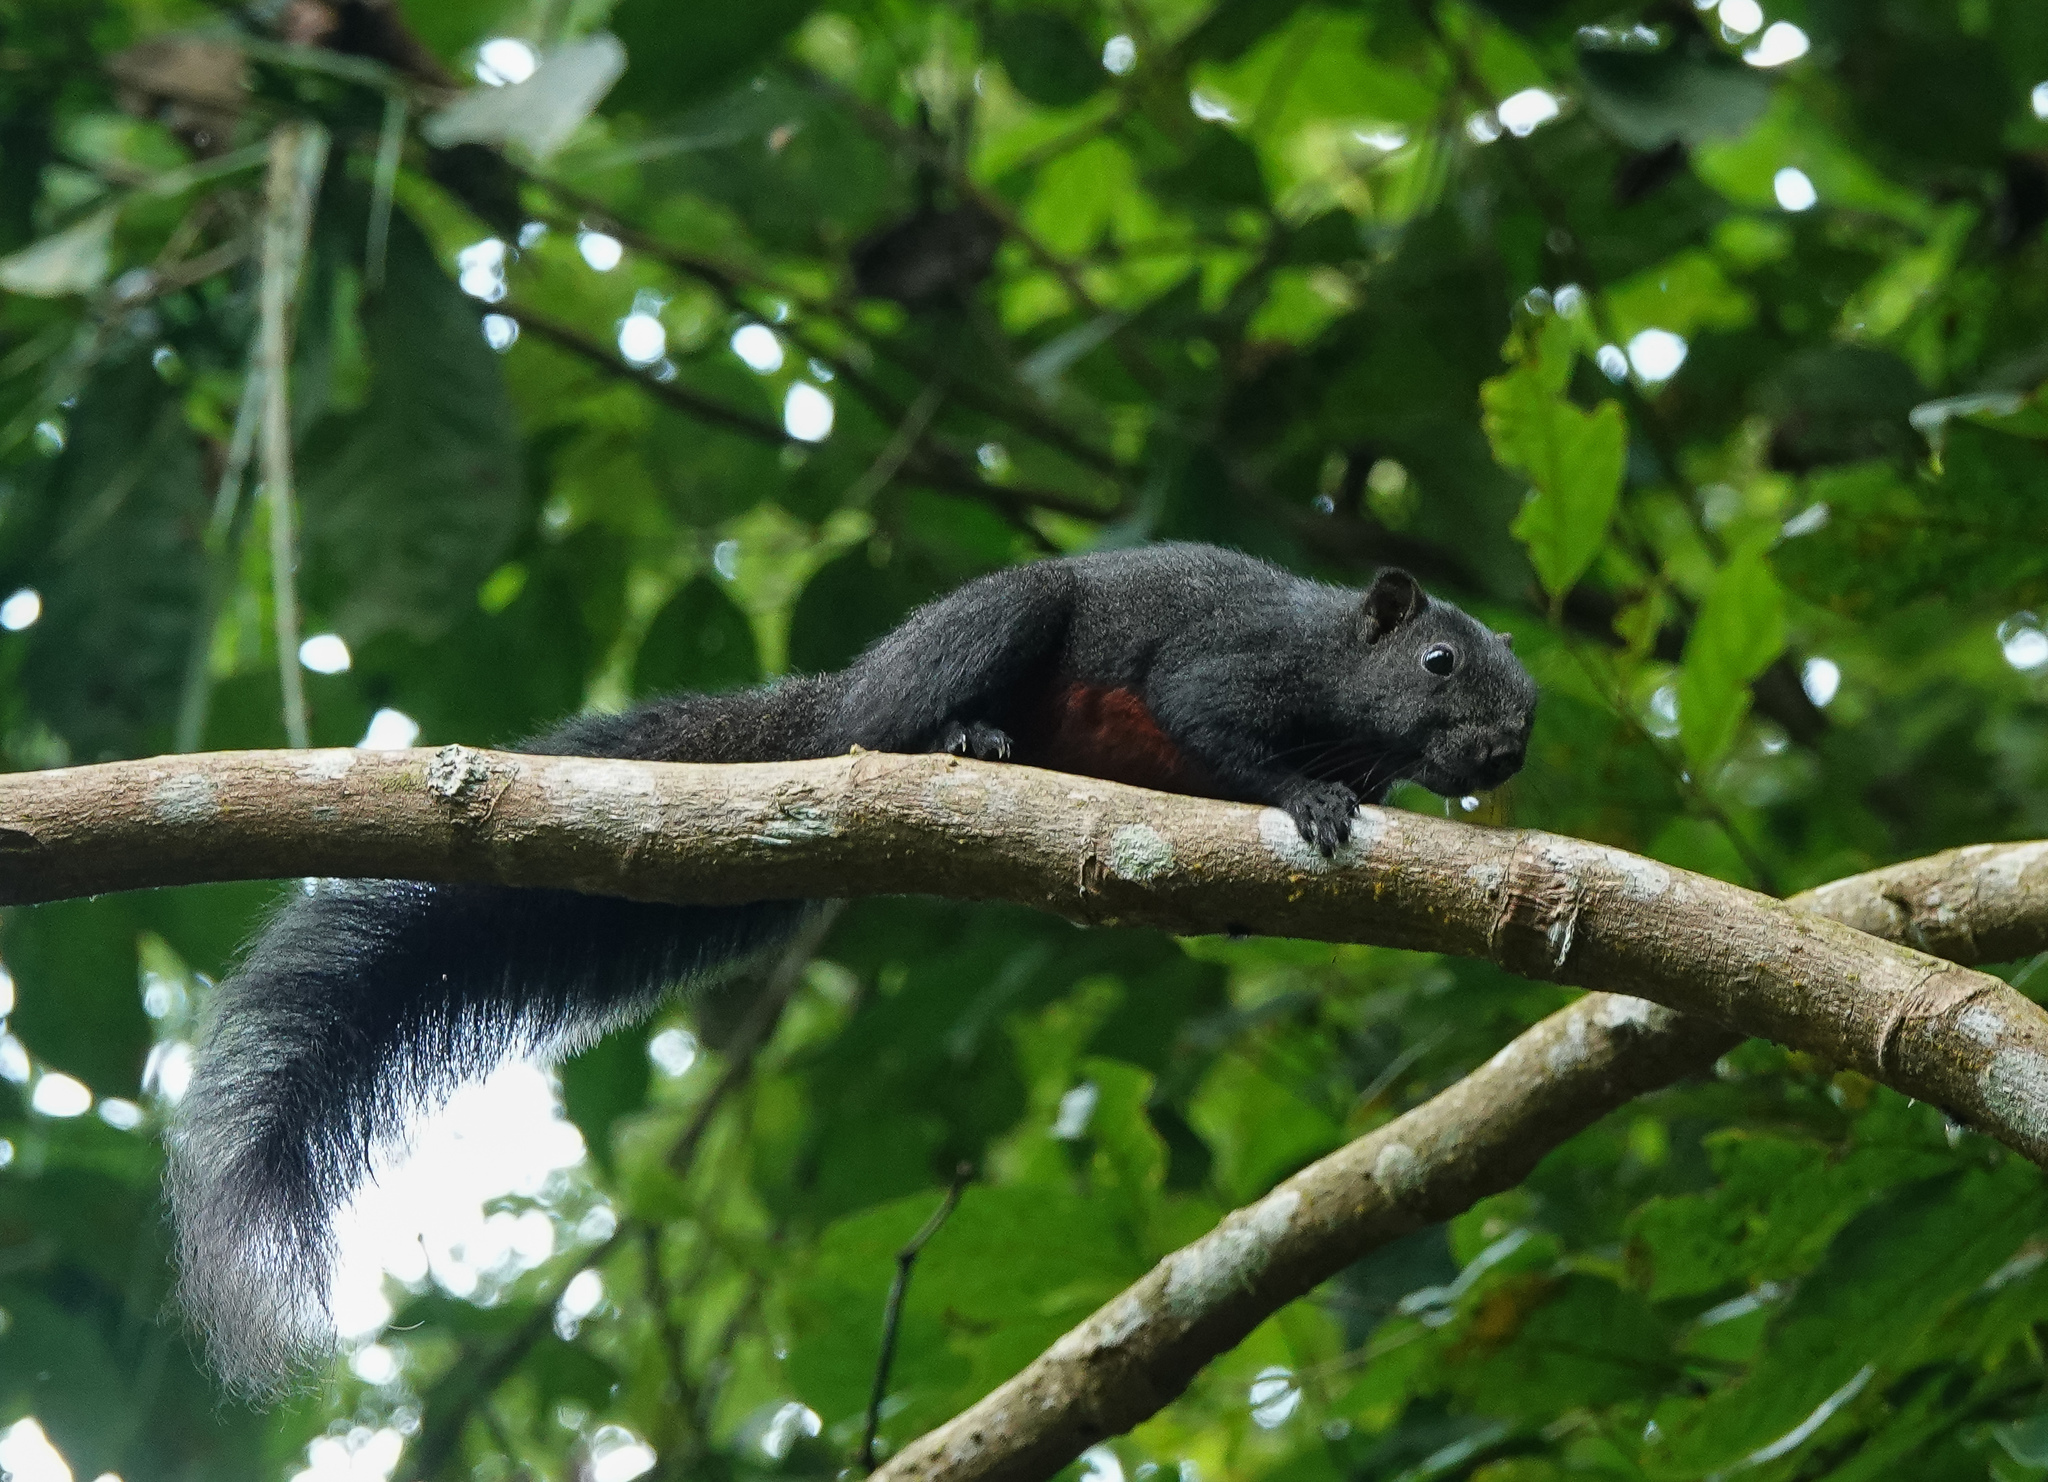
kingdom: Animalia
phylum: Chordata
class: Mammalia
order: Rodentia
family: Sciuridae
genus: Callosciurus
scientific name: Callosciurus erythraeus
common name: Pallas's squirrel
